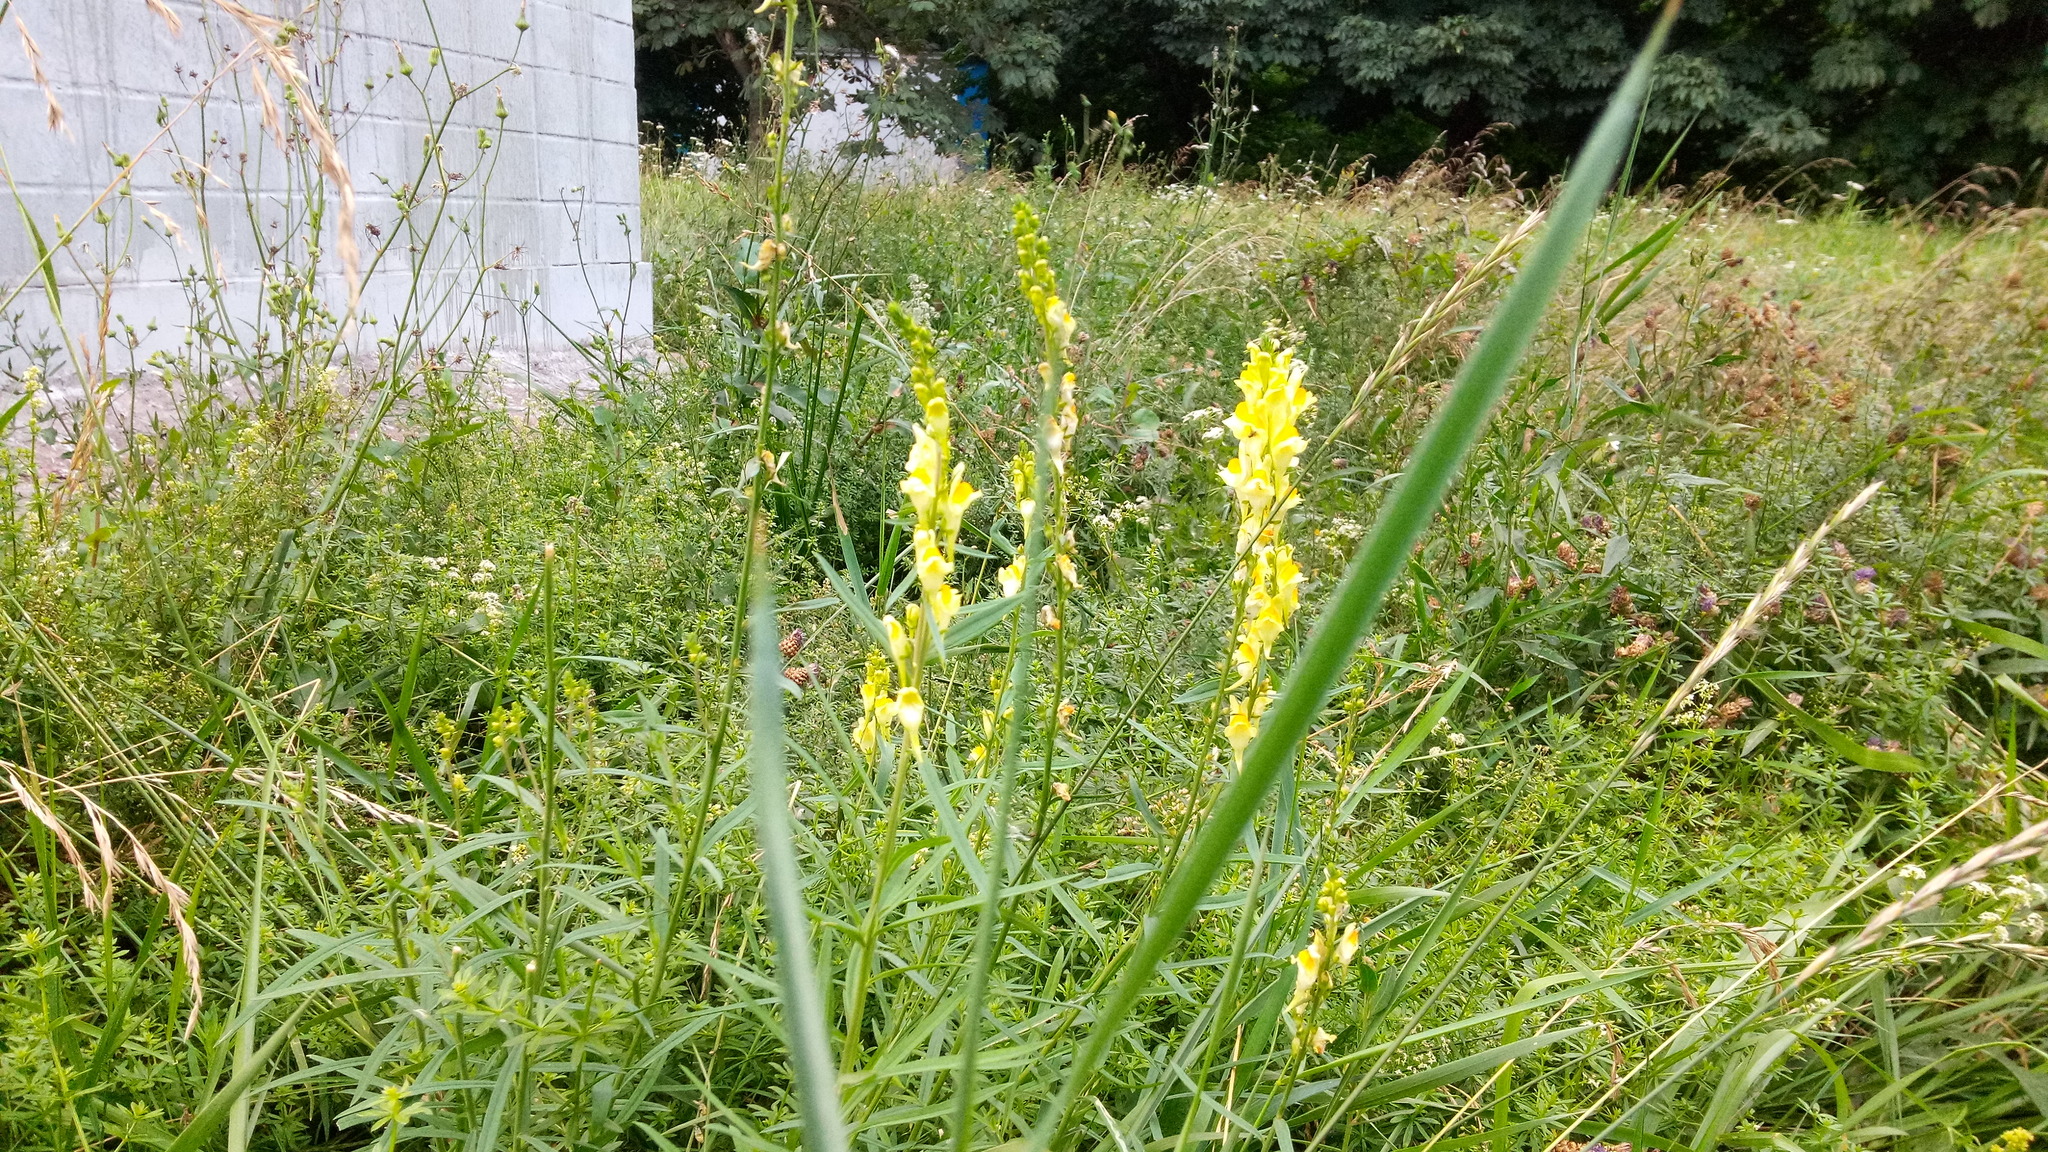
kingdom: Plantae
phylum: Tracheophyta
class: Magnoliopsida
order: Lamiales
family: Plantaginaceae
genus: Linaria
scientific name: Linaria vulgaris
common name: Butter and eggs
